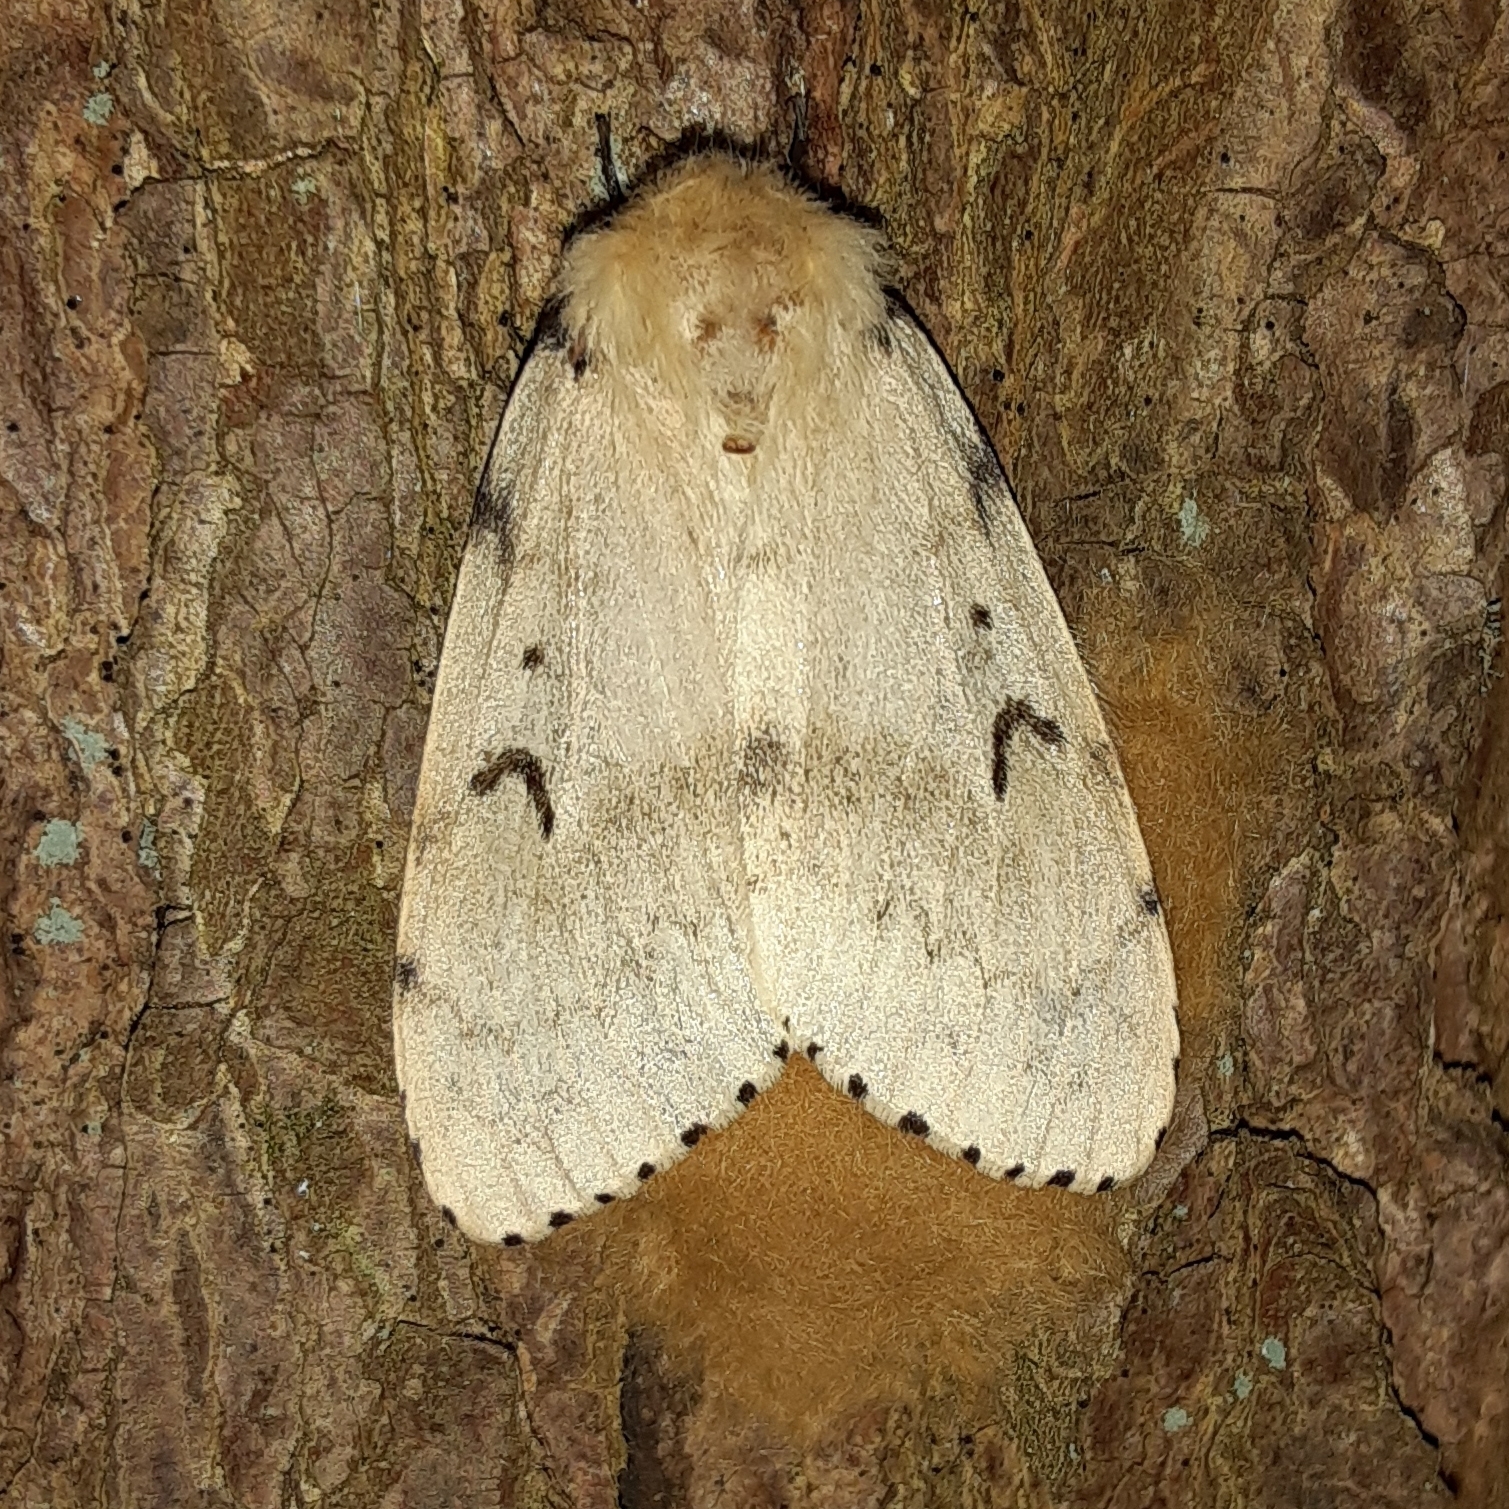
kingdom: Animalia
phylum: Arthropoda
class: Insecta
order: Lepidoptera
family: Erebidae
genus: Lymantria
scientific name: Lymantria dispar
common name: Gypsy moth
